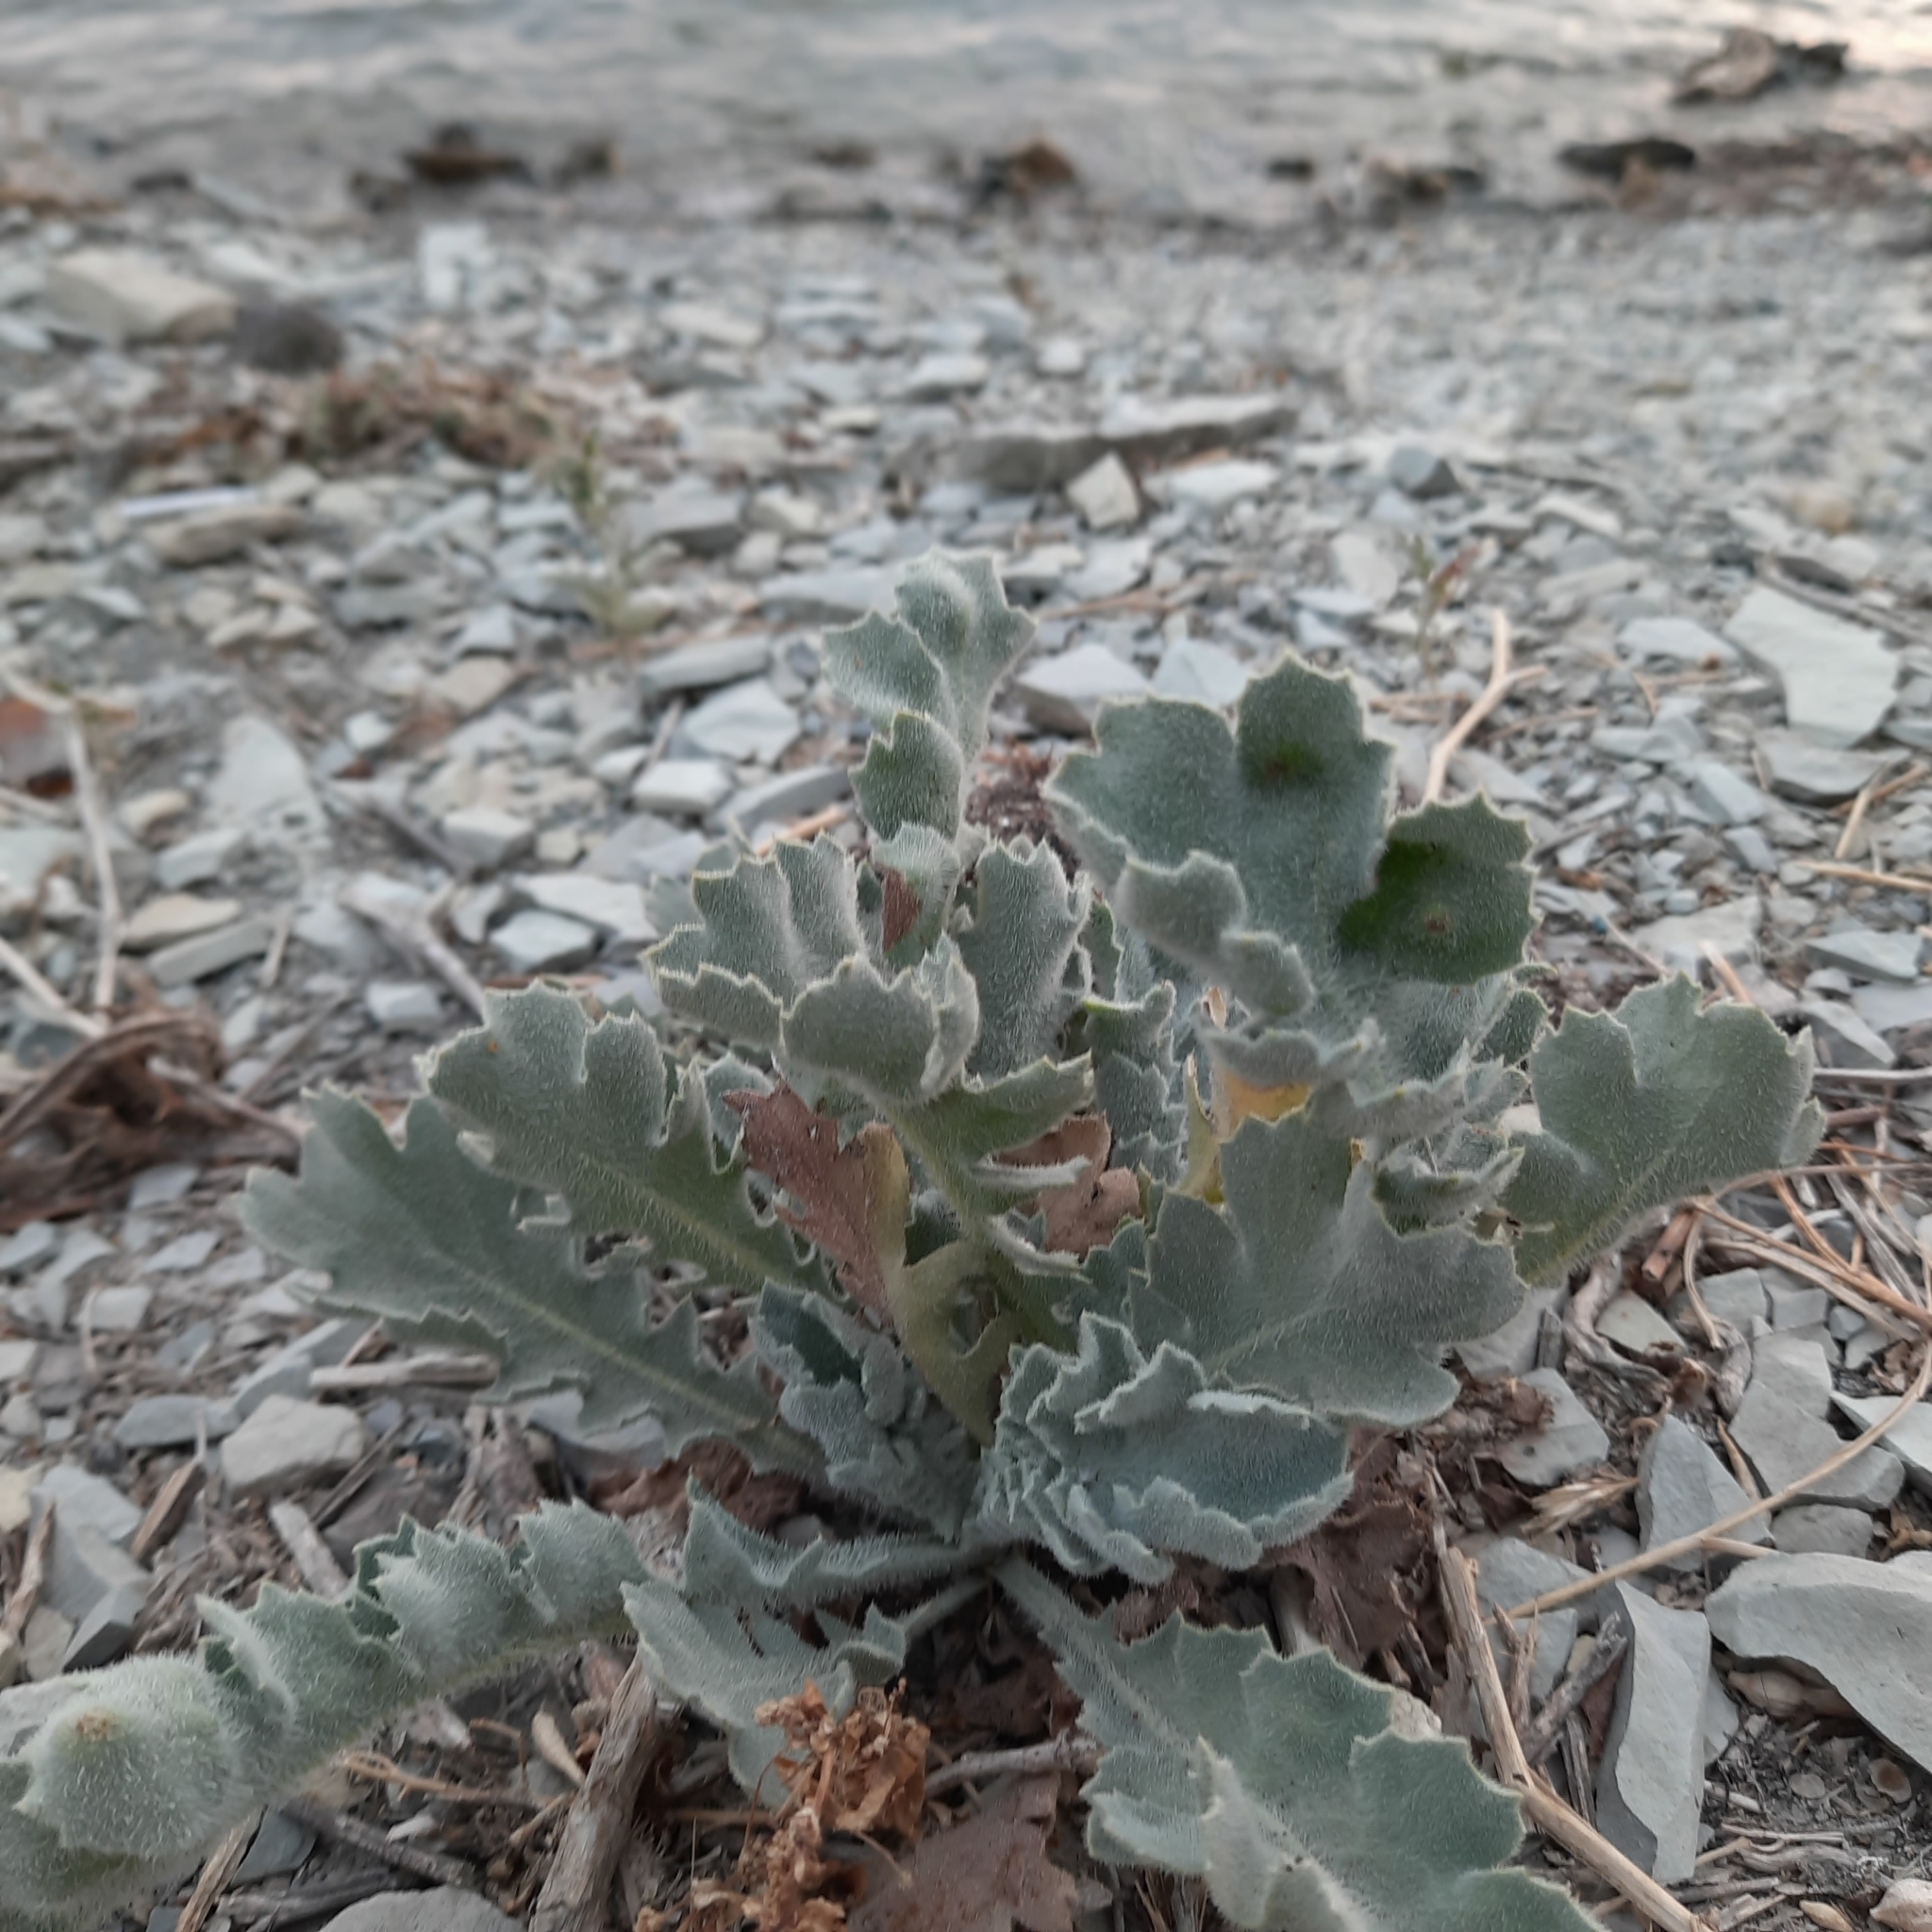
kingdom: Plantae
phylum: Tracheophyta
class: Magnoliopsida
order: Ranunculales
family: Papaveraceae
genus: Glaucium
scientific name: Glaucium flavum
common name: Yellow horned-poppy
